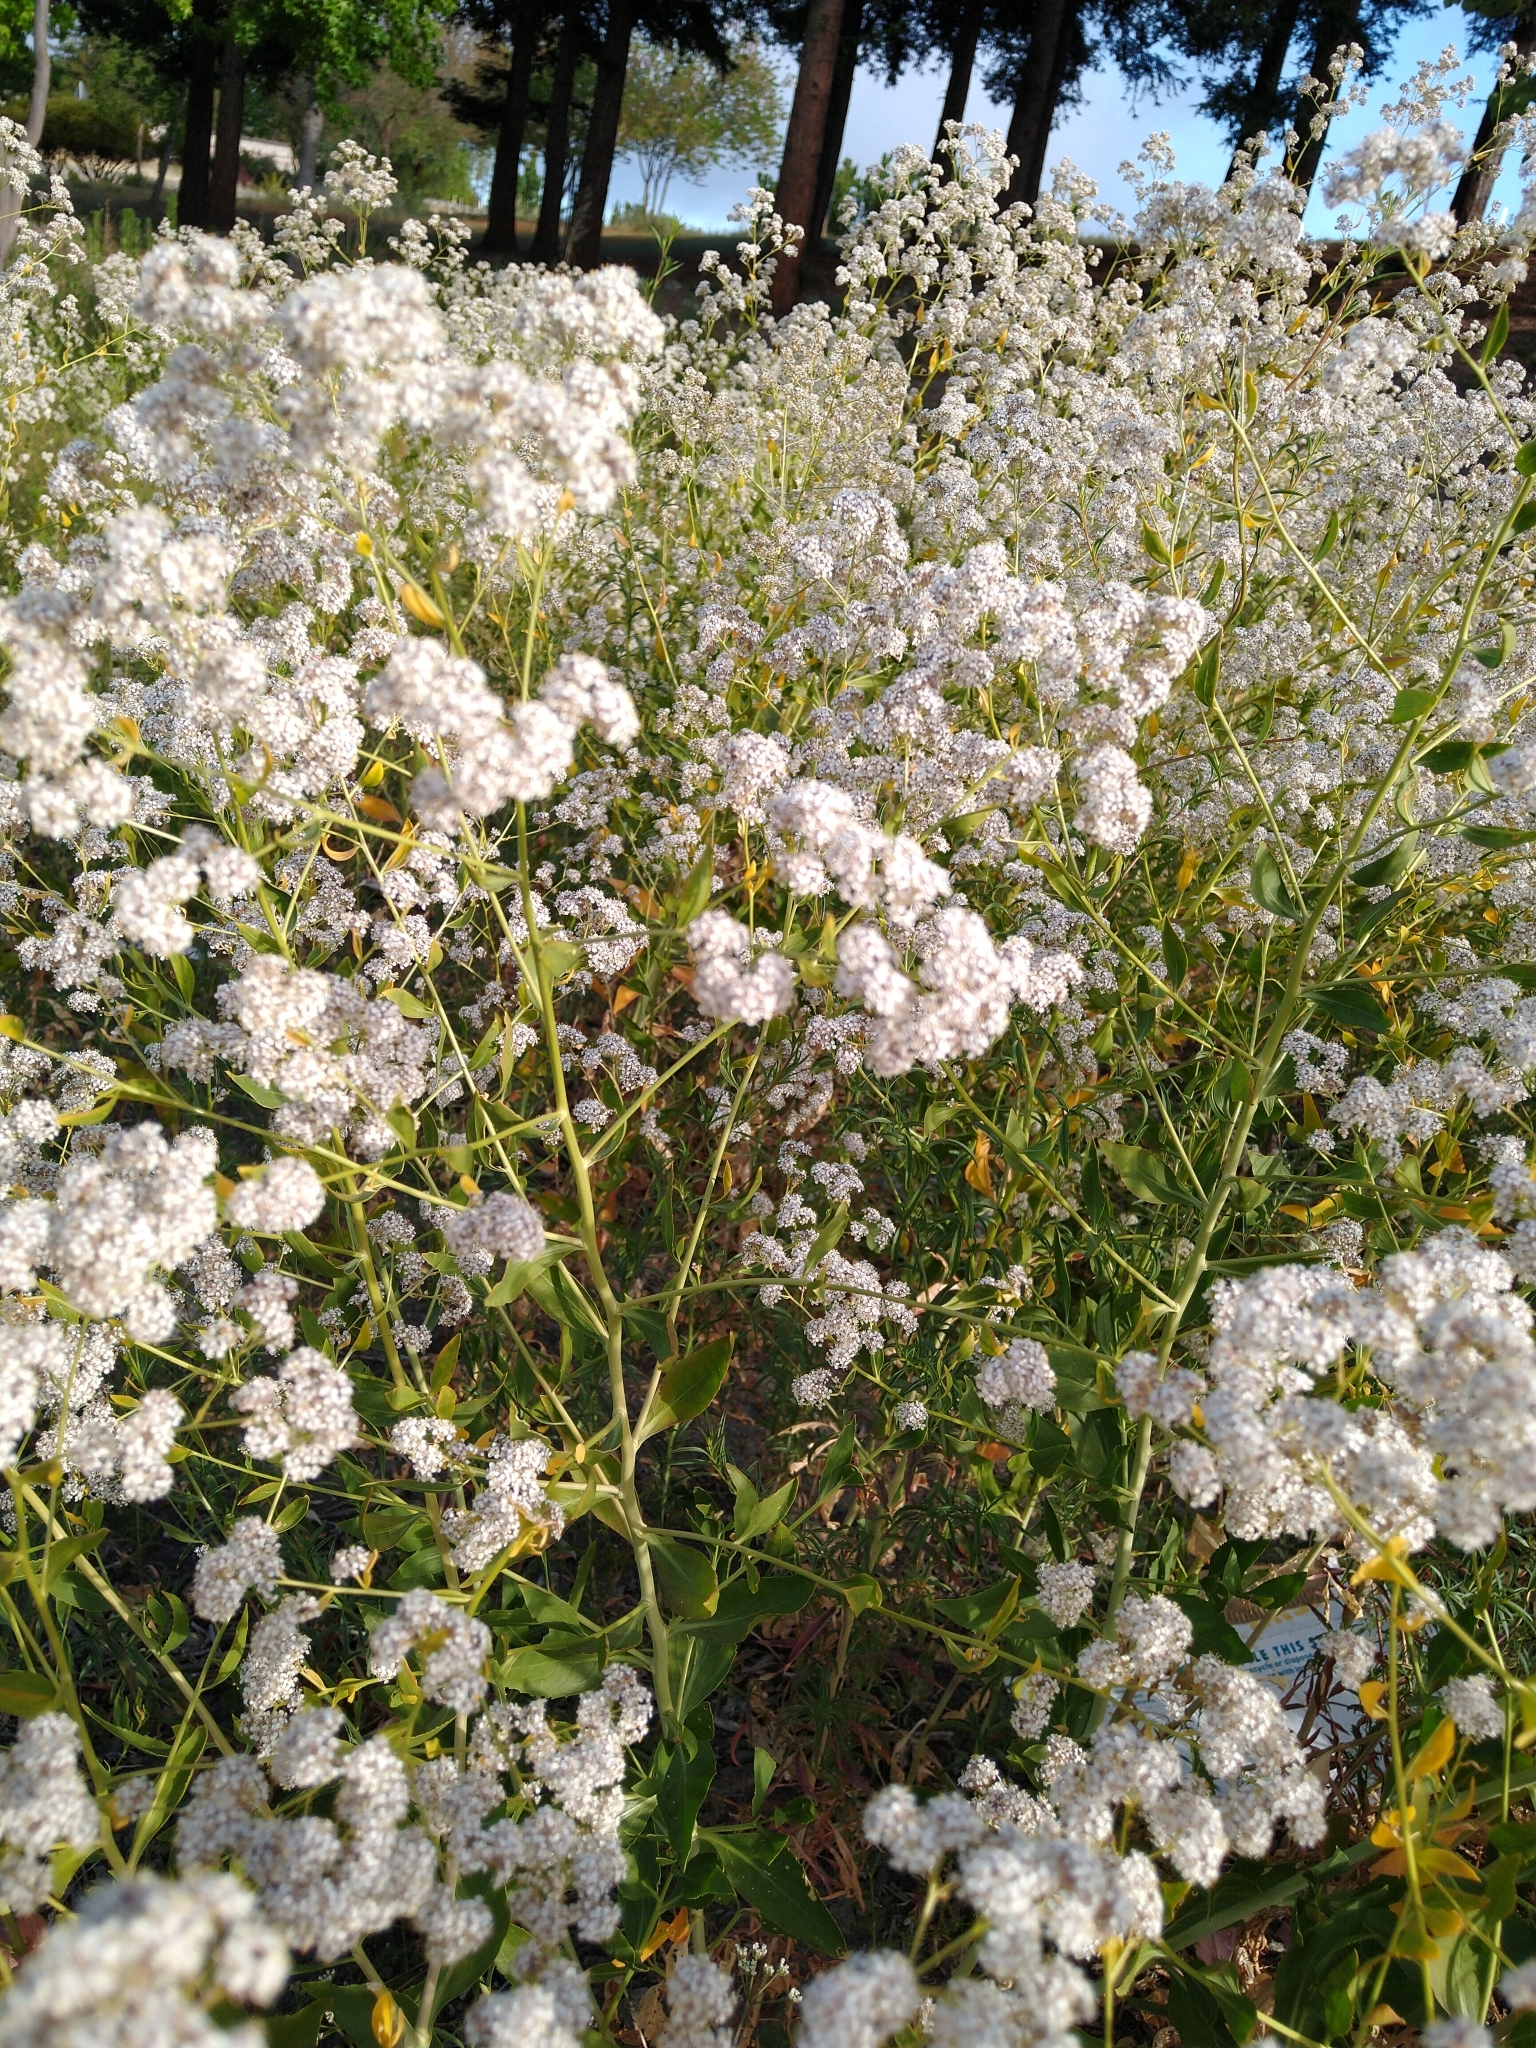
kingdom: Plantae
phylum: Tracheophyta
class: Magnoliopsida
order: Brassicales
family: Brassicaceae
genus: Lepidium
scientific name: Lepidium latifolium
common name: Dittander
